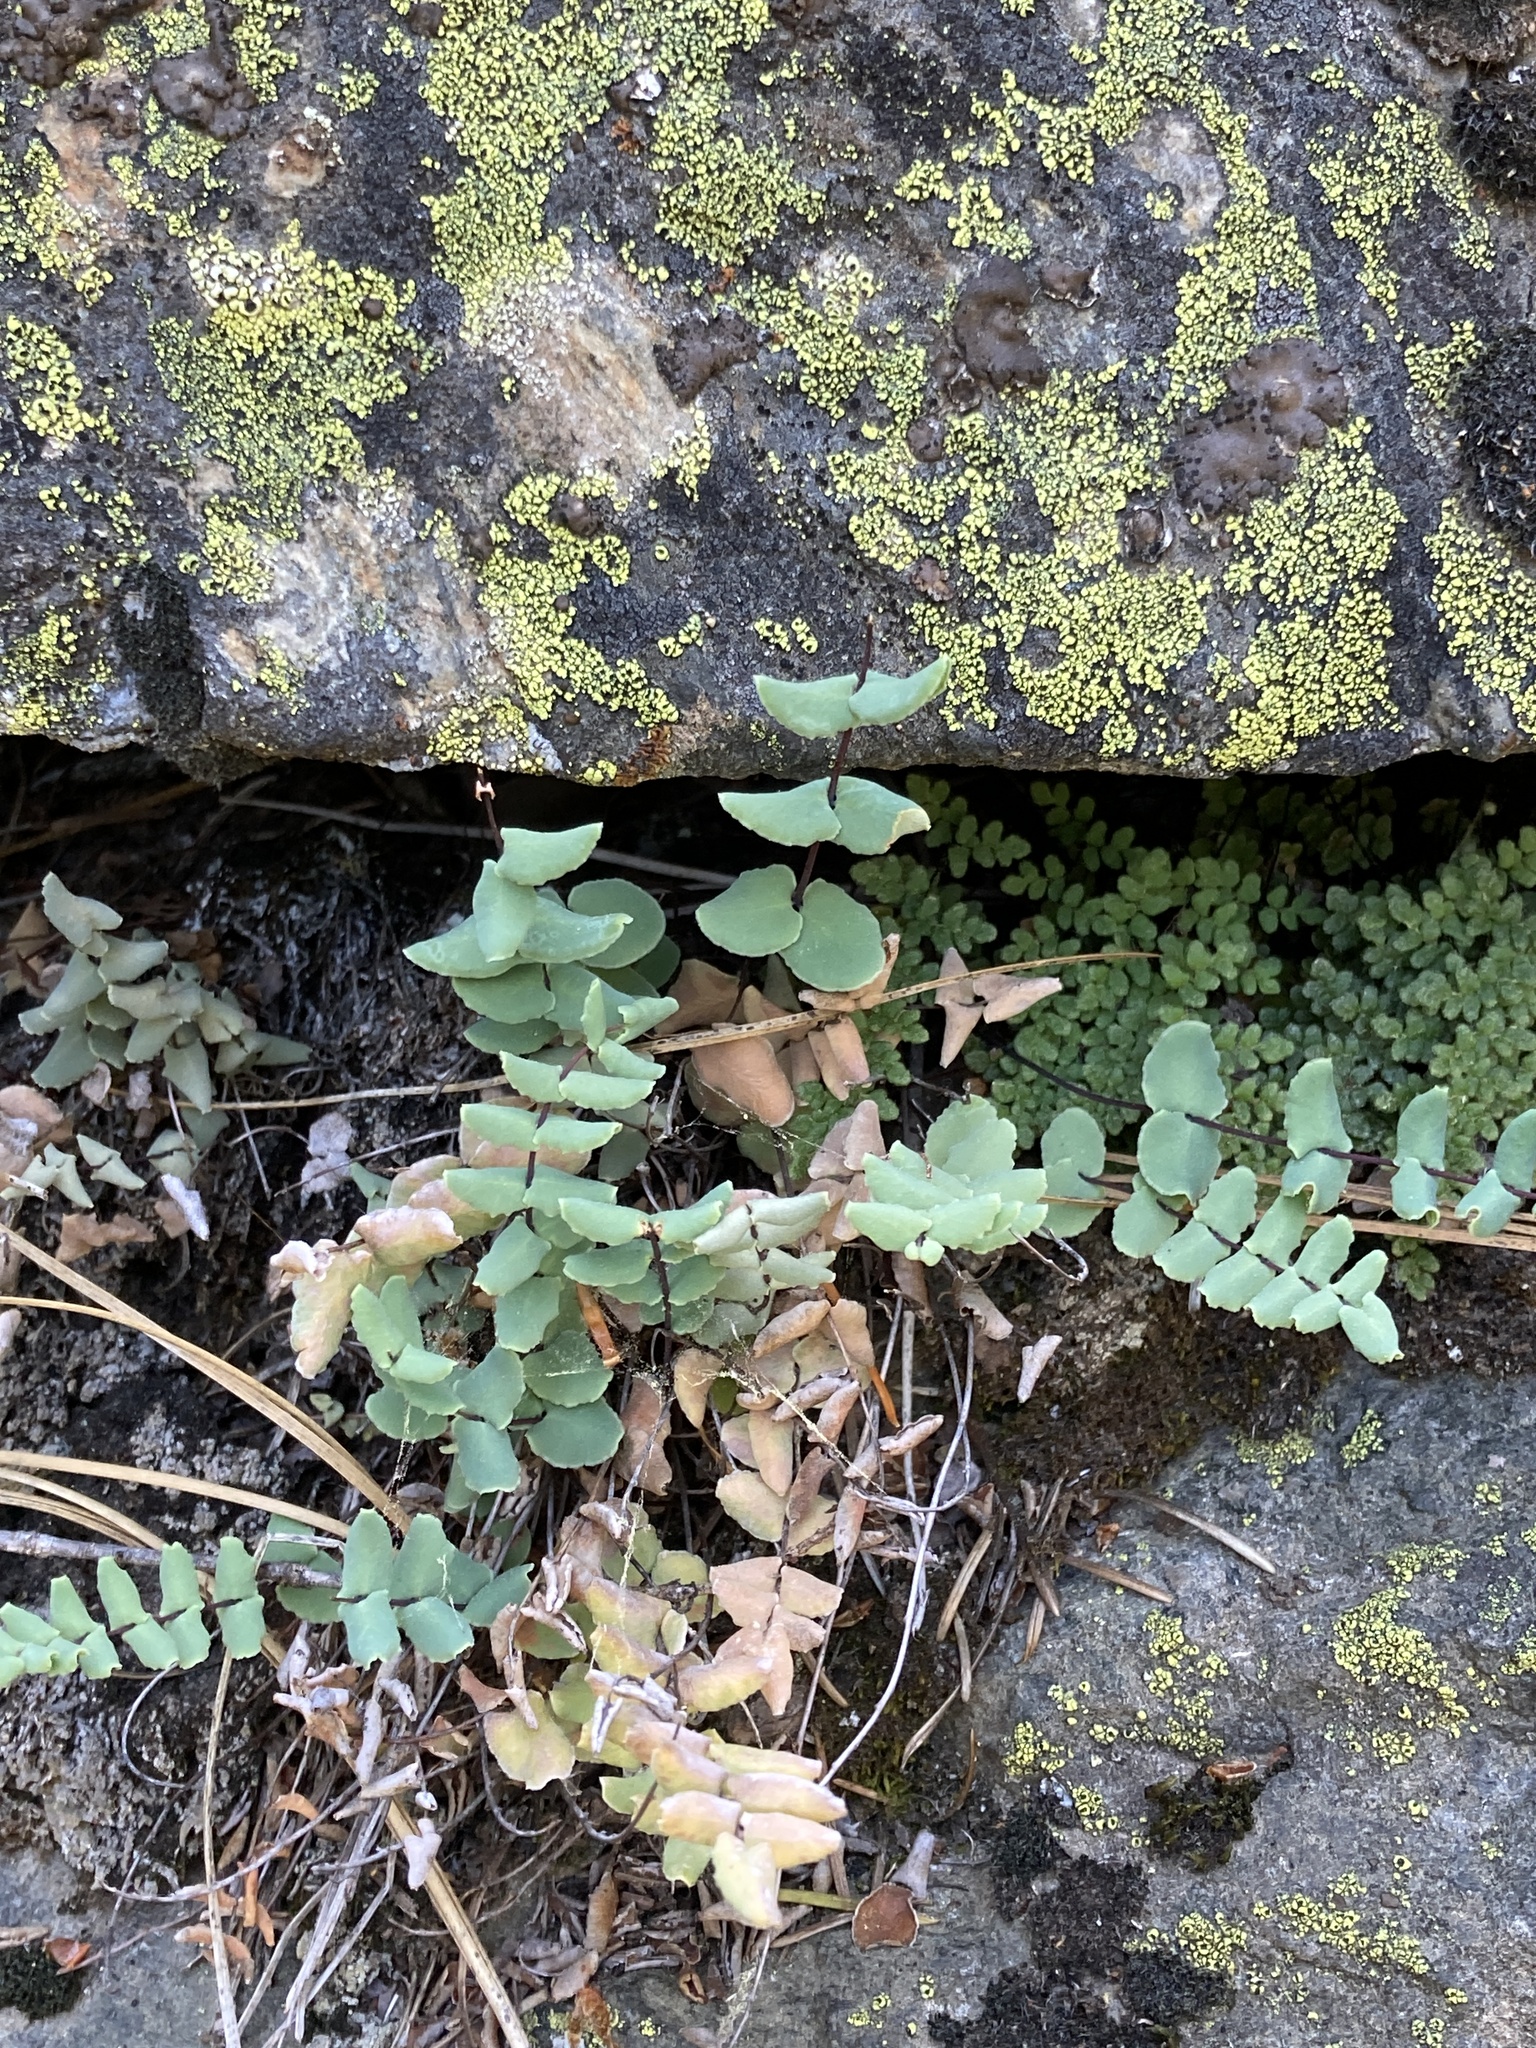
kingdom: Plantae
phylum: Tracheophyta
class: Polypodiopsida
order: Polypodiales
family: Pteridaceae
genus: Pellaea
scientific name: Pellaea bridgesii
